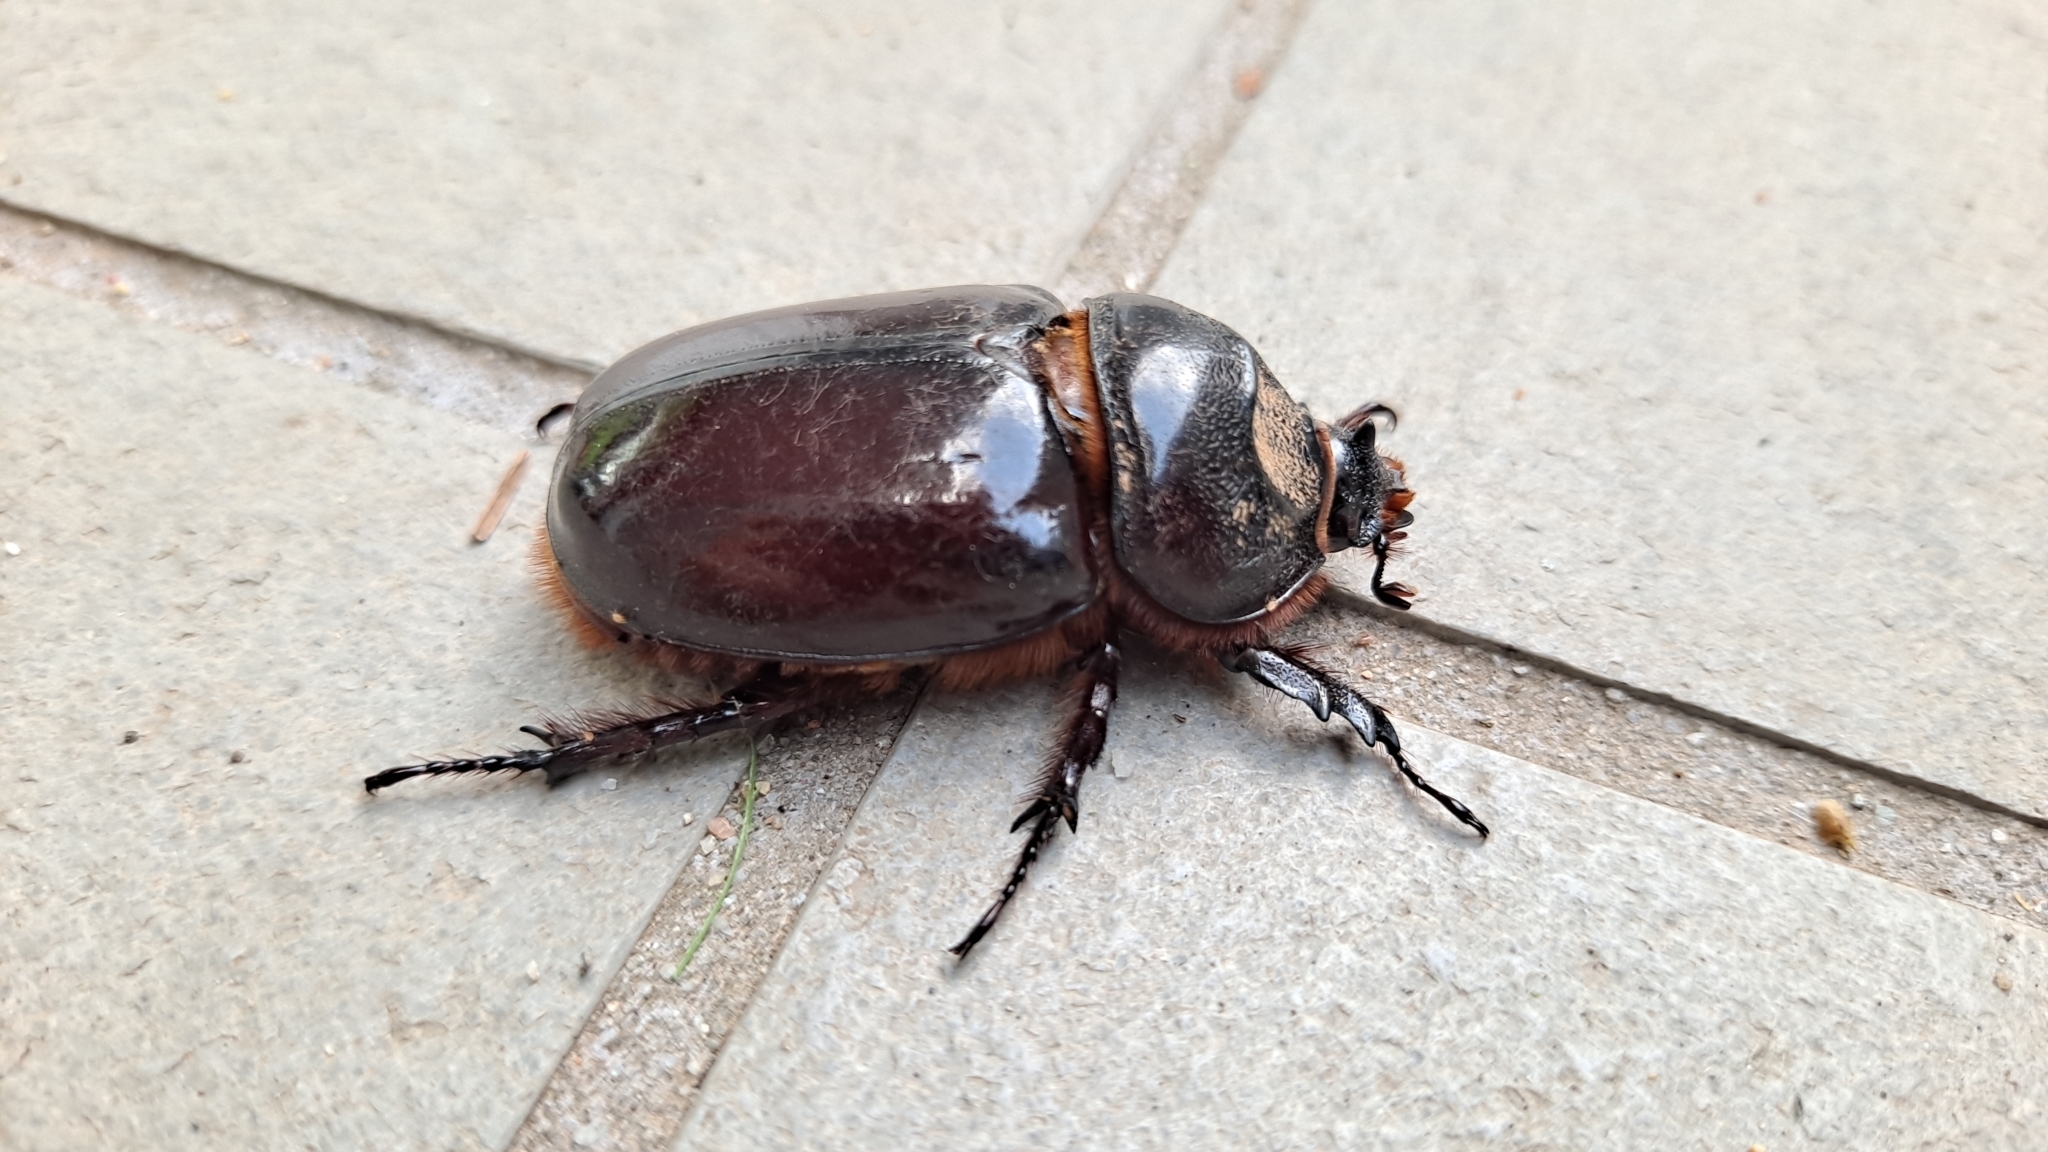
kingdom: Animalia
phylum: Arthropoda
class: Insecta
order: Coleoptera
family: Scarabaeidae
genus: Oryctes
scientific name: Oryctes nasicornis
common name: European rhinoceros beetle
